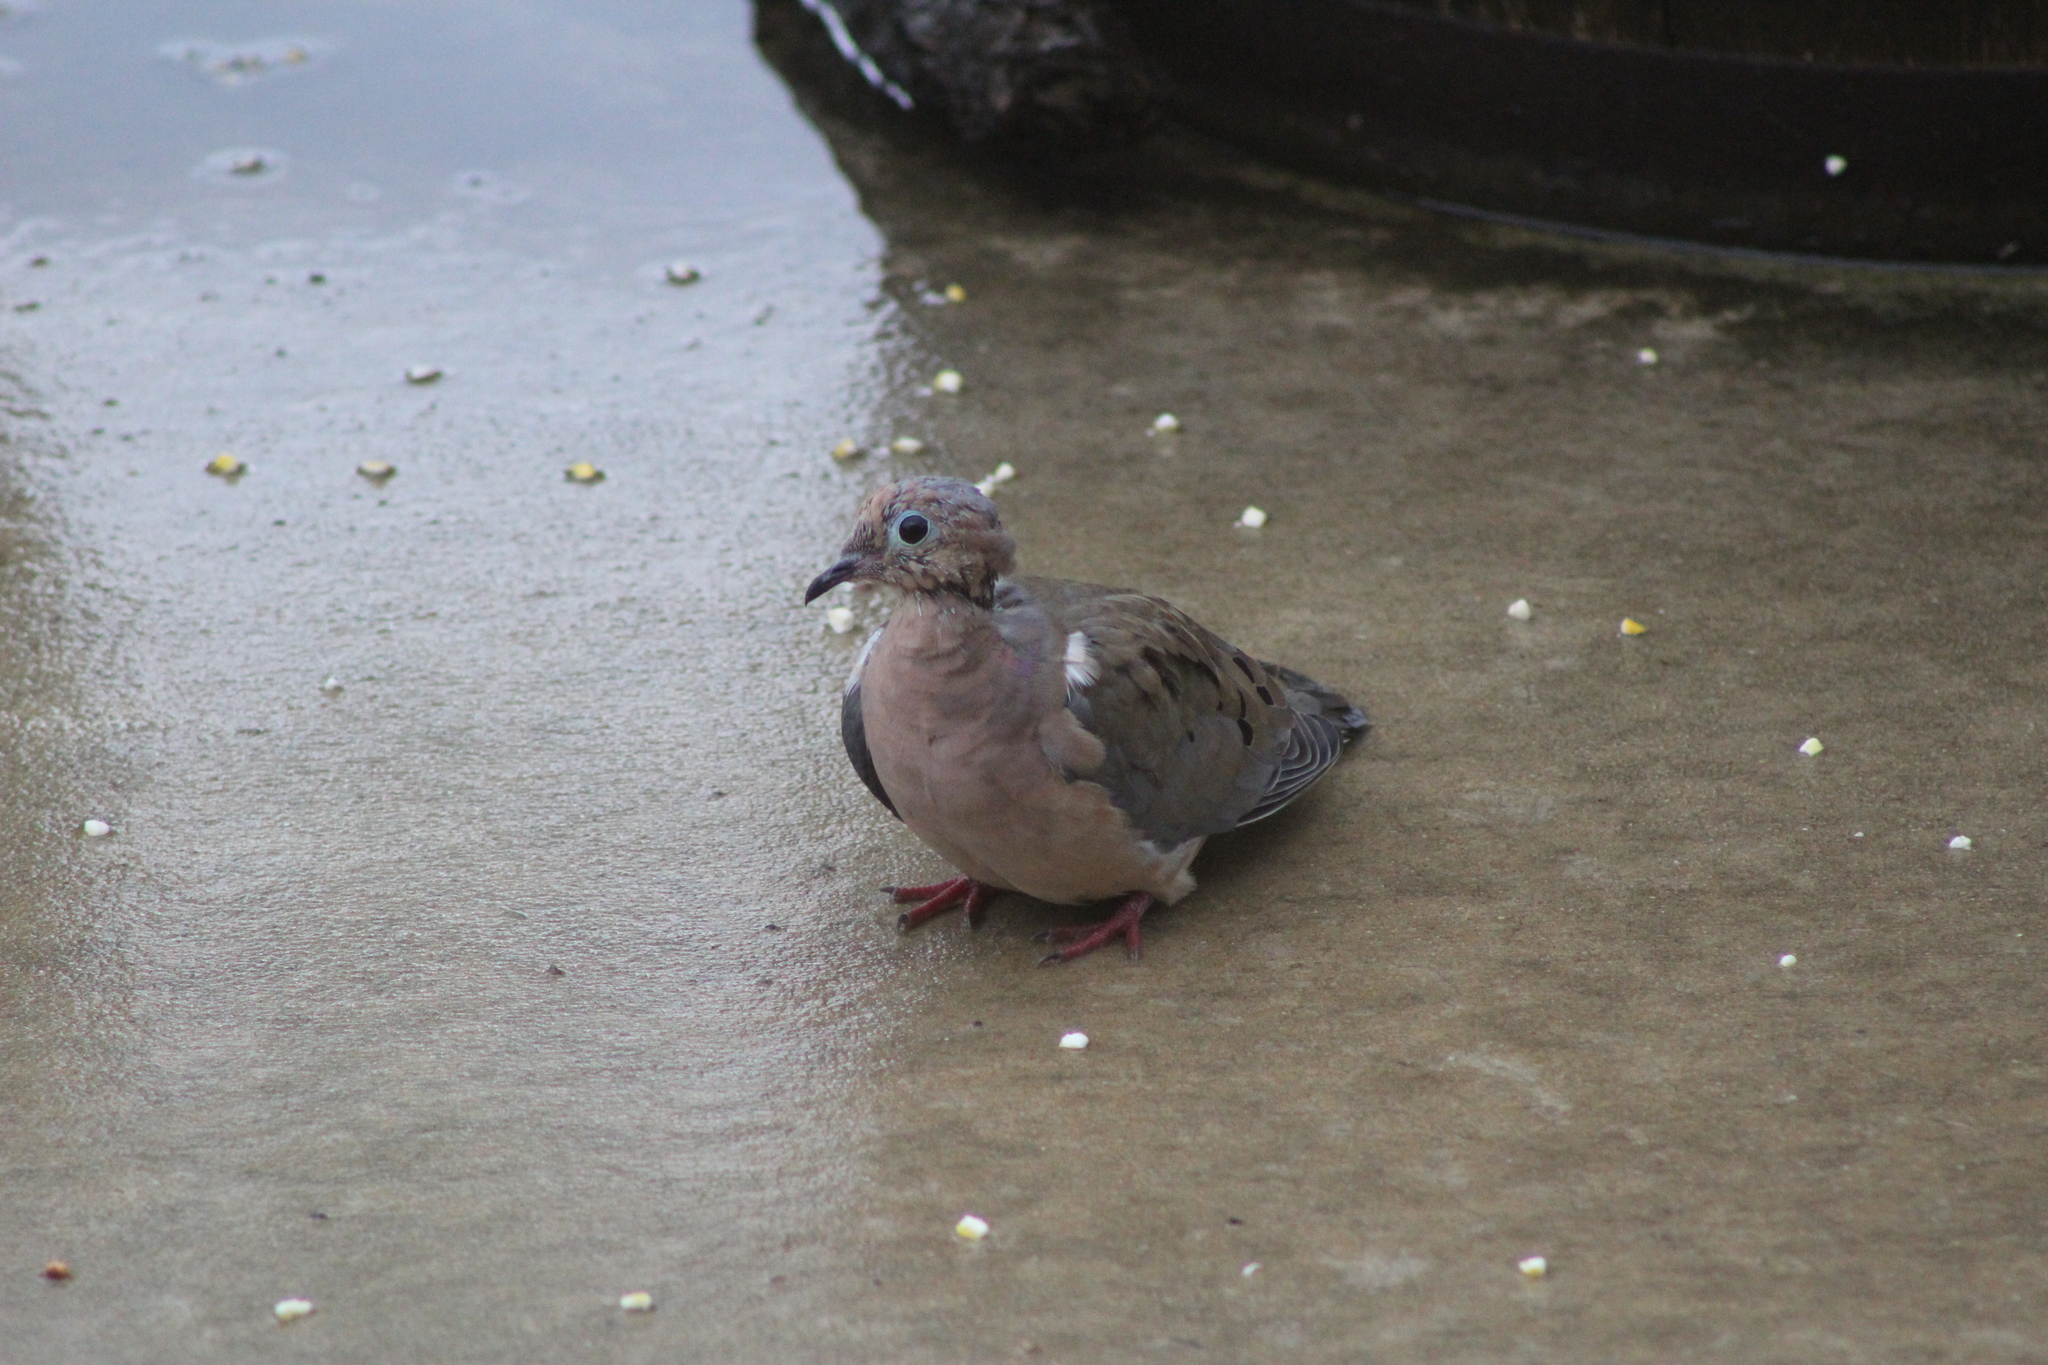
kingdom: Animalia
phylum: Chordata
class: Aves
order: Columbiformes
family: Columbidae
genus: Zenaida
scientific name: Zenaida macroura
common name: Mourning dove
